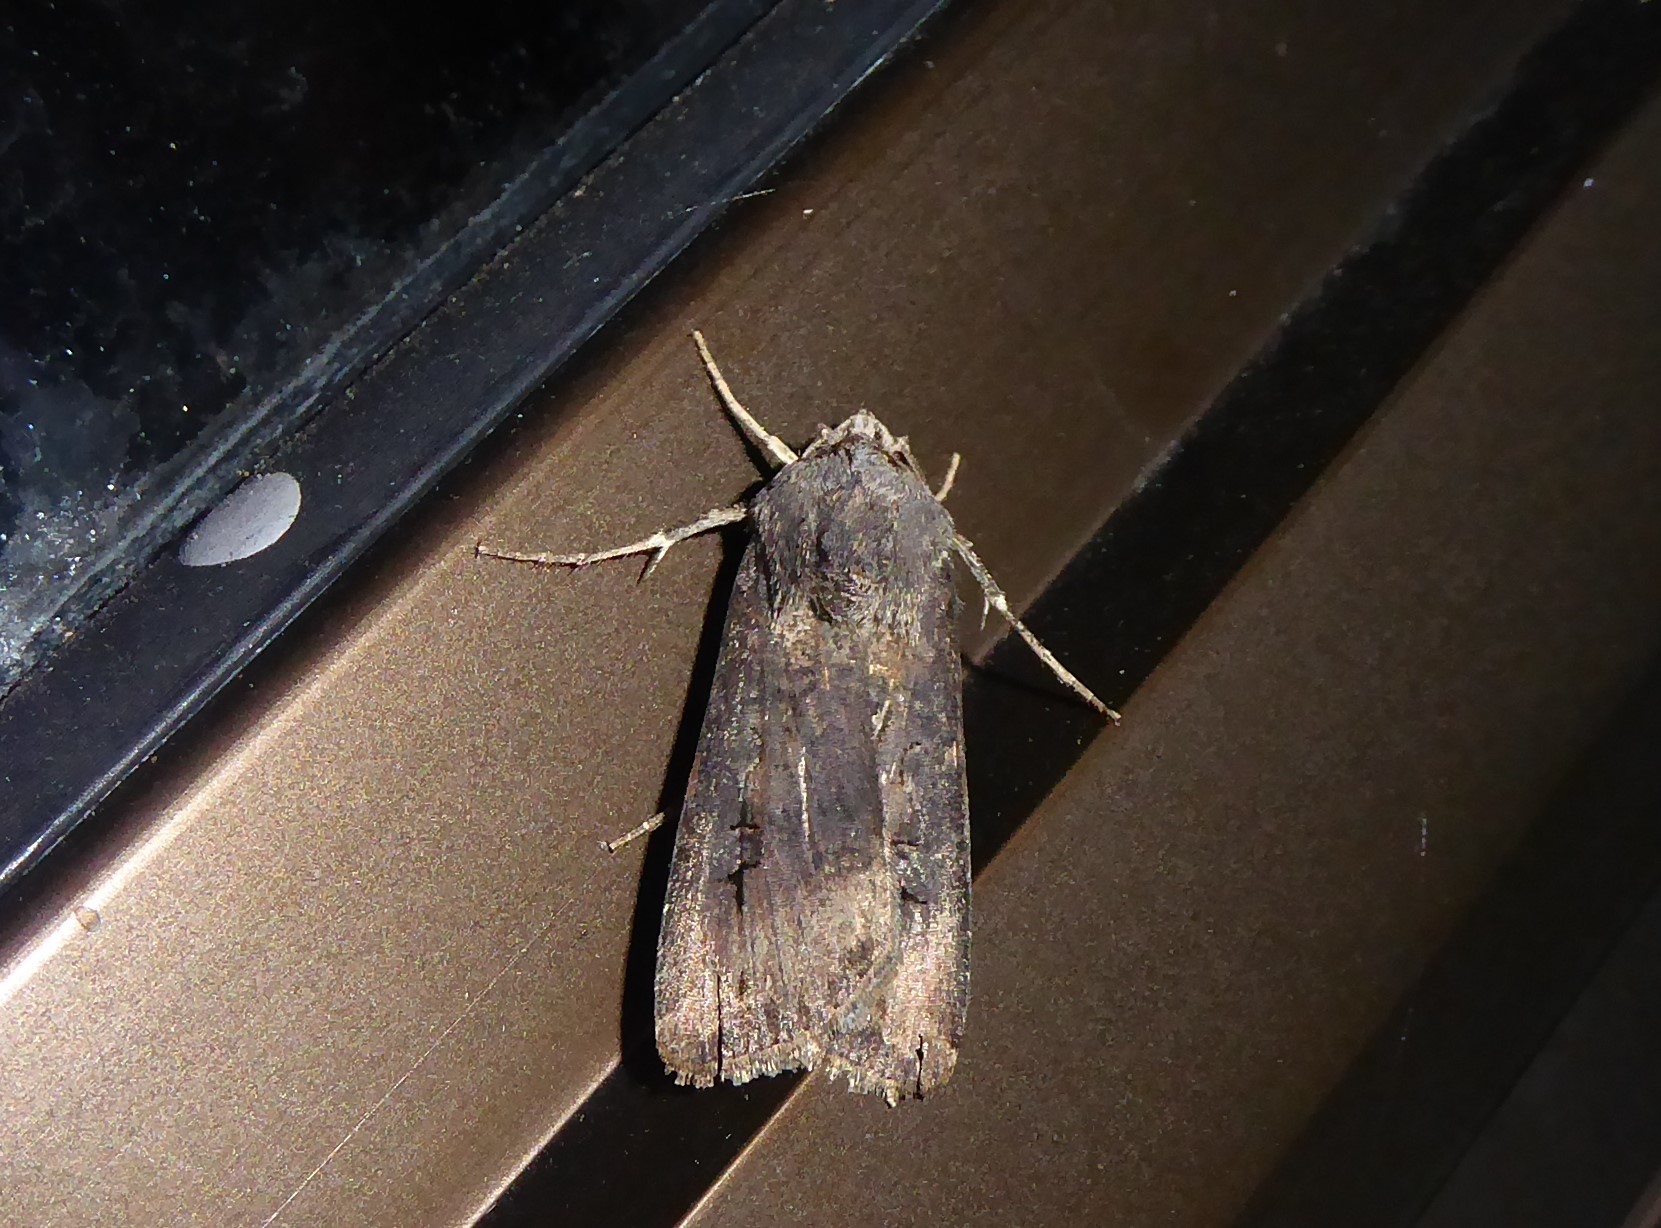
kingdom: Animalia
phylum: Arthropoda
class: Insecta
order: Lepidoptera
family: Noctuidae
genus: Agrotis
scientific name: Agrotis ipsilon
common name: Dark sword-grass
